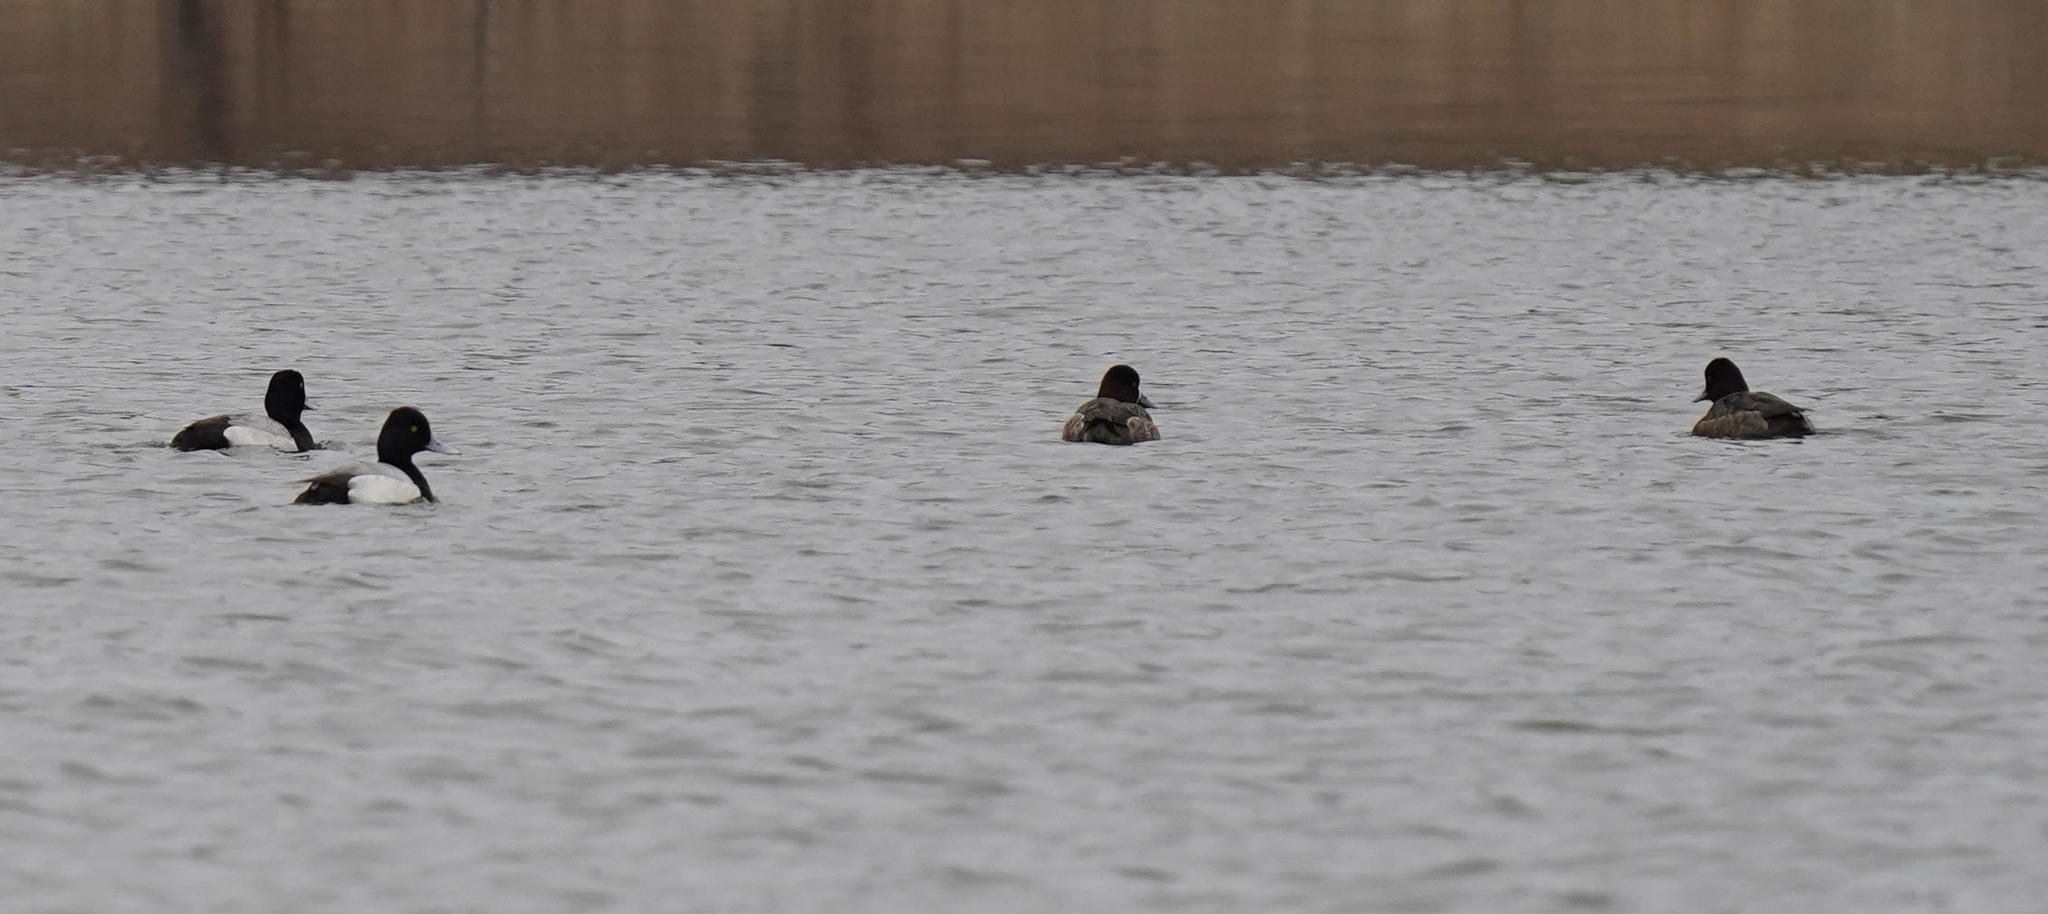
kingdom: Animalia
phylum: Chordata
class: Aves
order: Anseriformes
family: Anatidae
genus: Aythya
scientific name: Aythya affinis
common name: Lesser scaup
